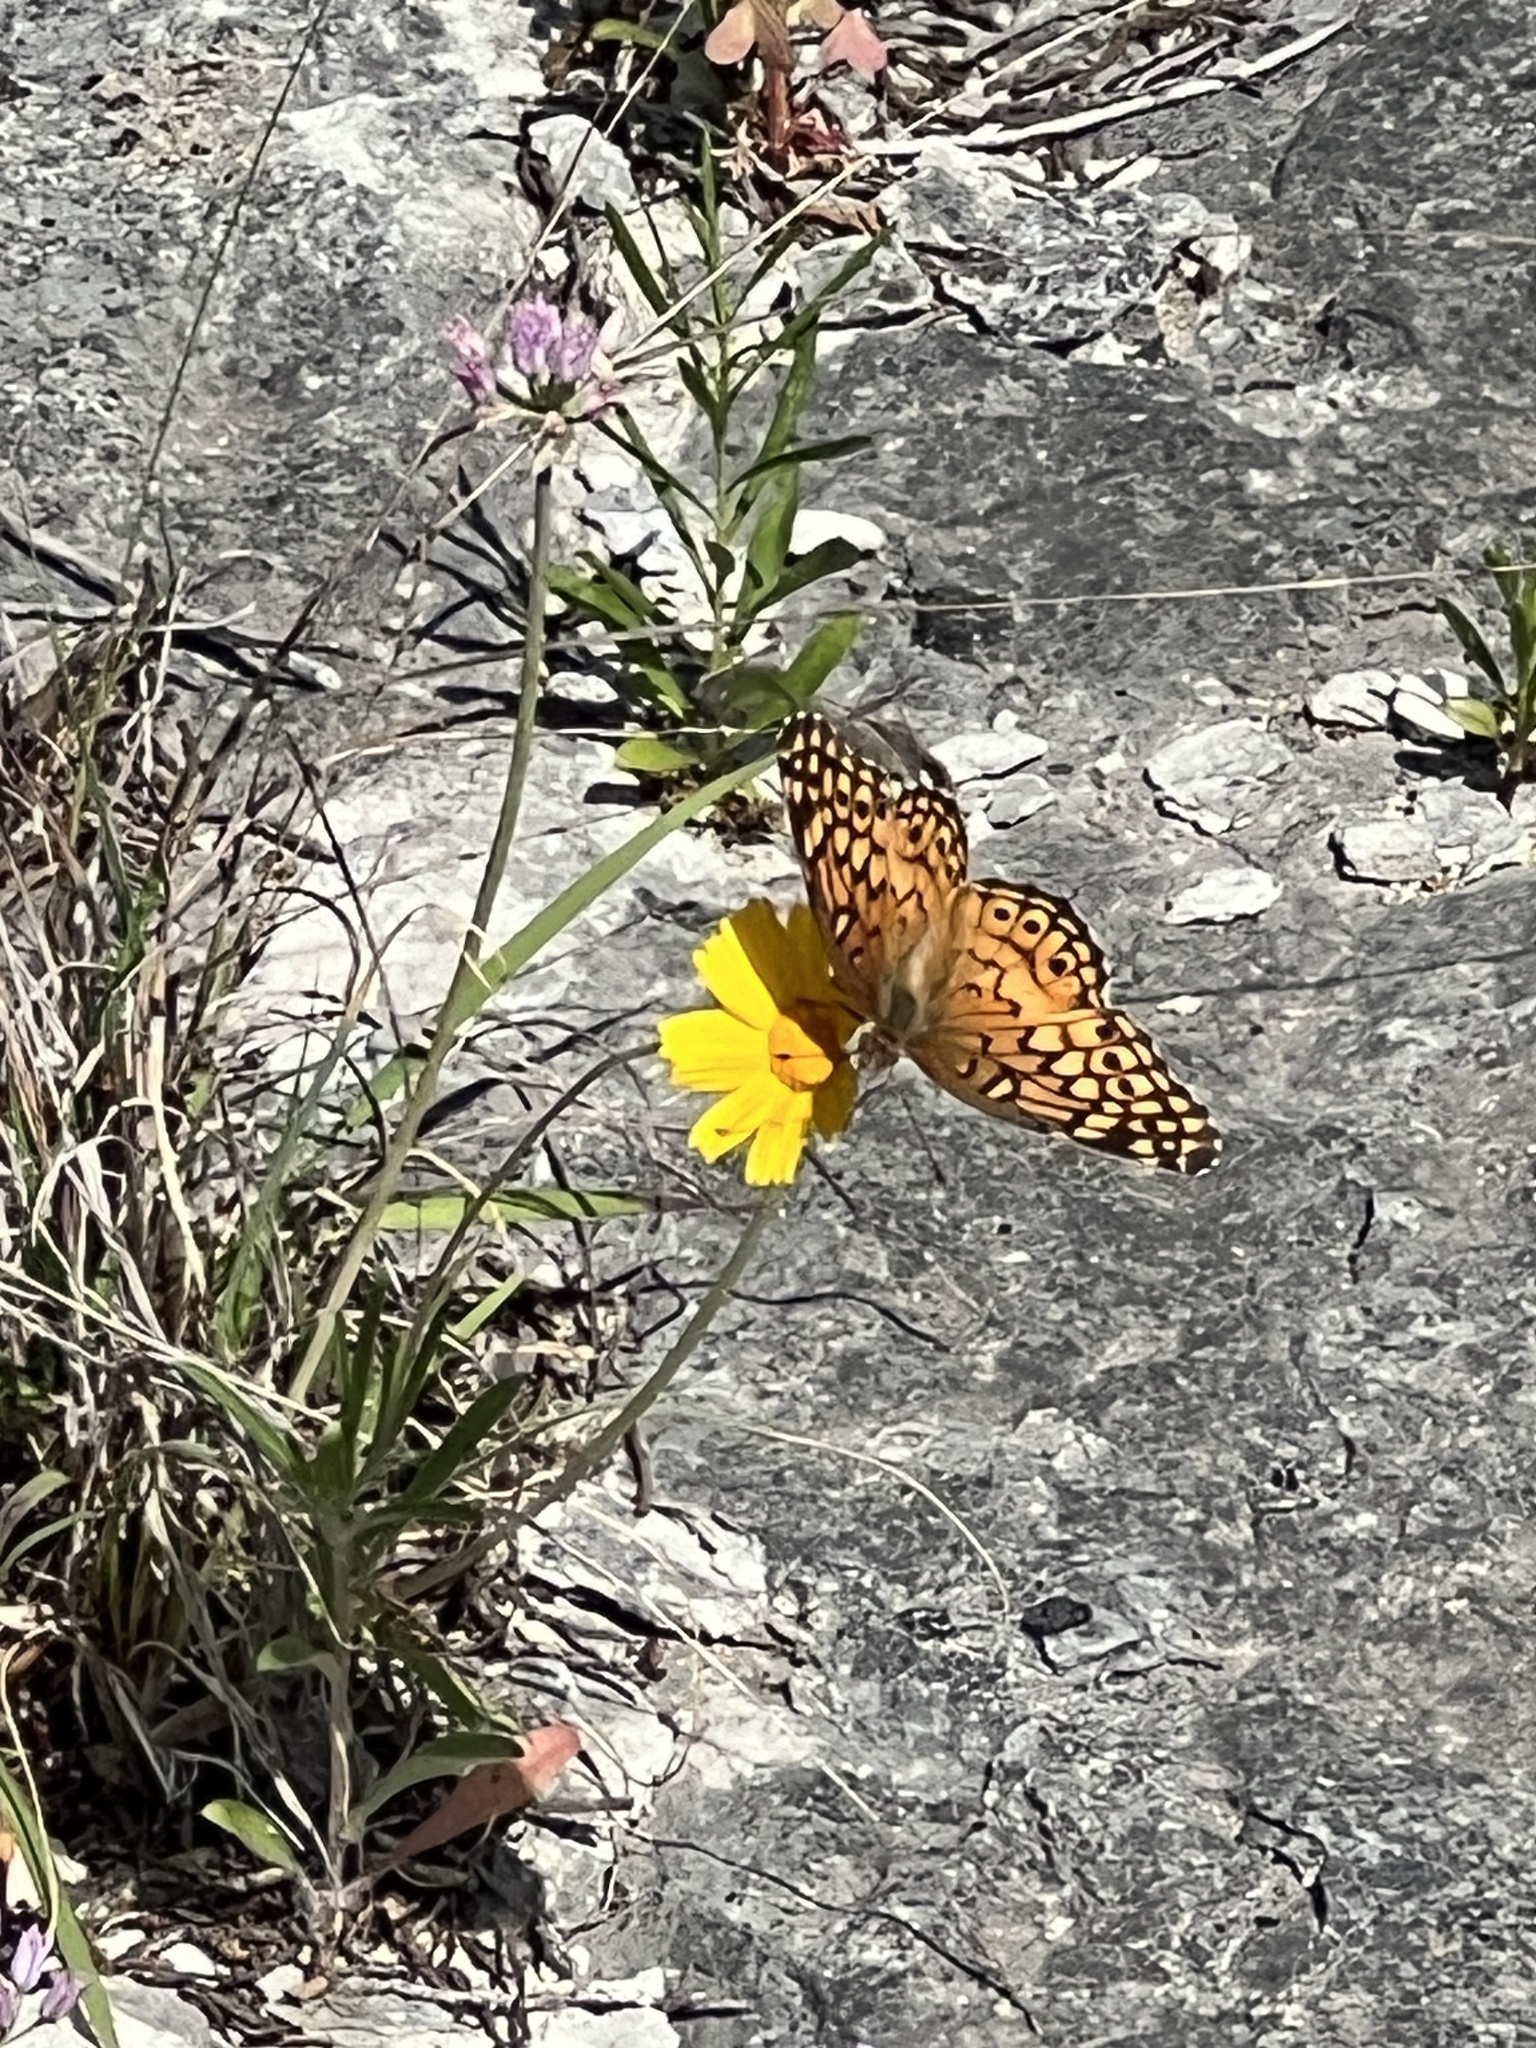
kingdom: Animalia
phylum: Arthropoda
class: Insecta
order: Lepidoptera
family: Nymphalidae
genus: Euptoieta
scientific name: Euptoieta claudia
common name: Variegated fritillary
